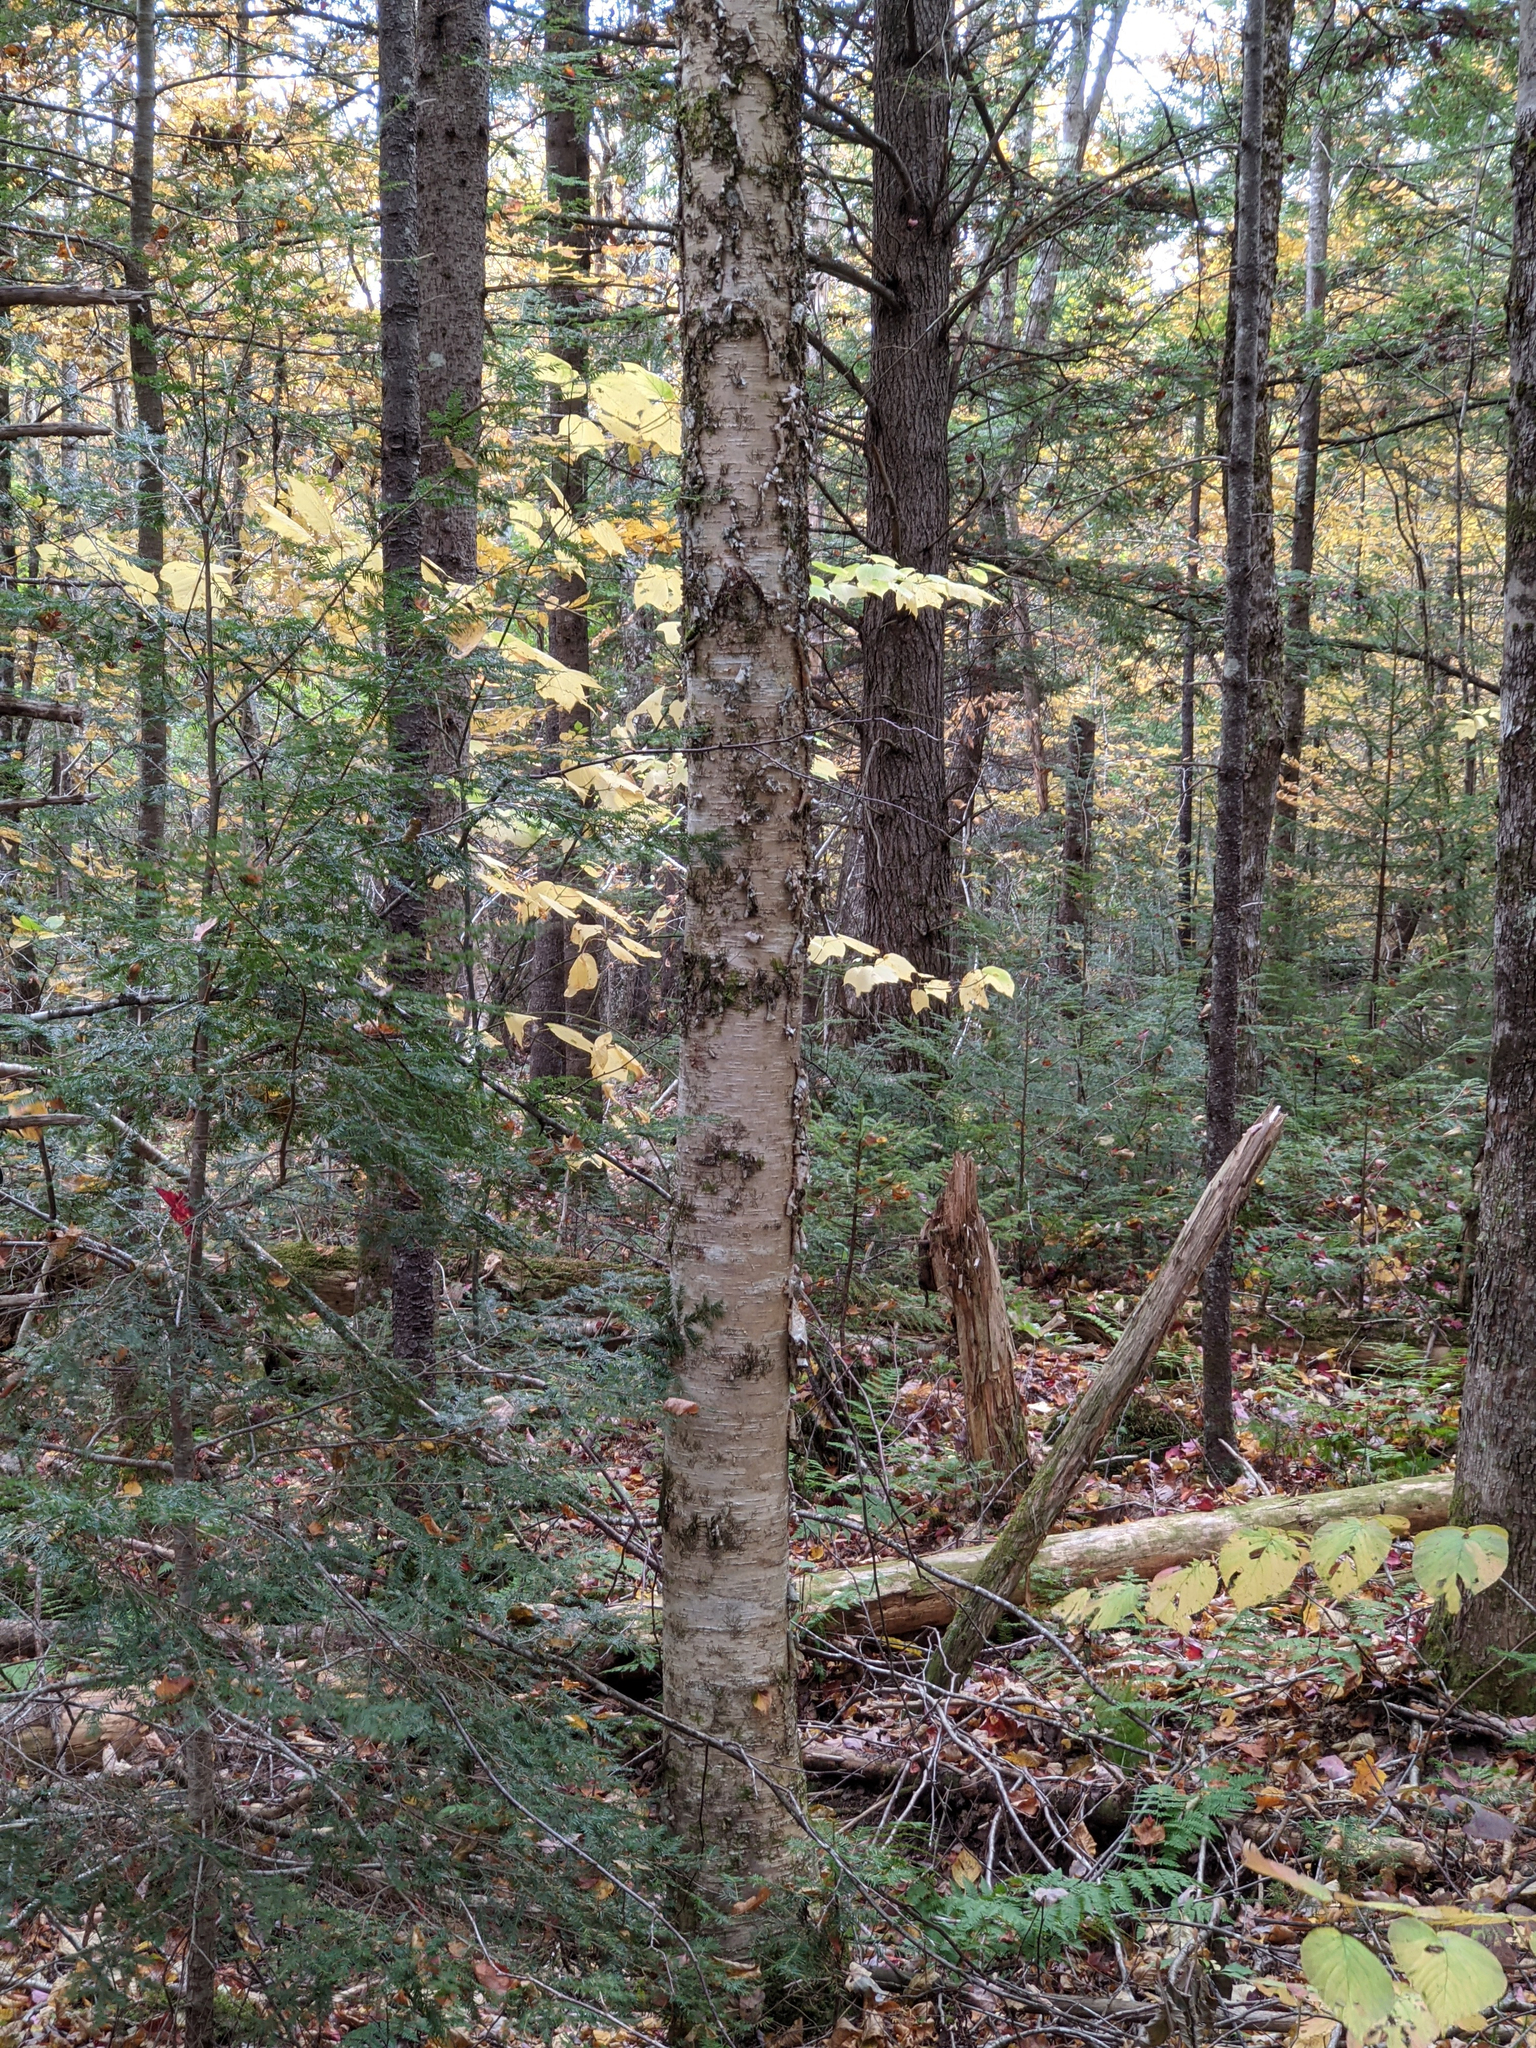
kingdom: Plantae
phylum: Tracheophyta
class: Magnoliopsida
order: Fagales
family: Betulaceae
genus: Betula
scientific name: Betula alleghaniensis
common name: Yellow birch
